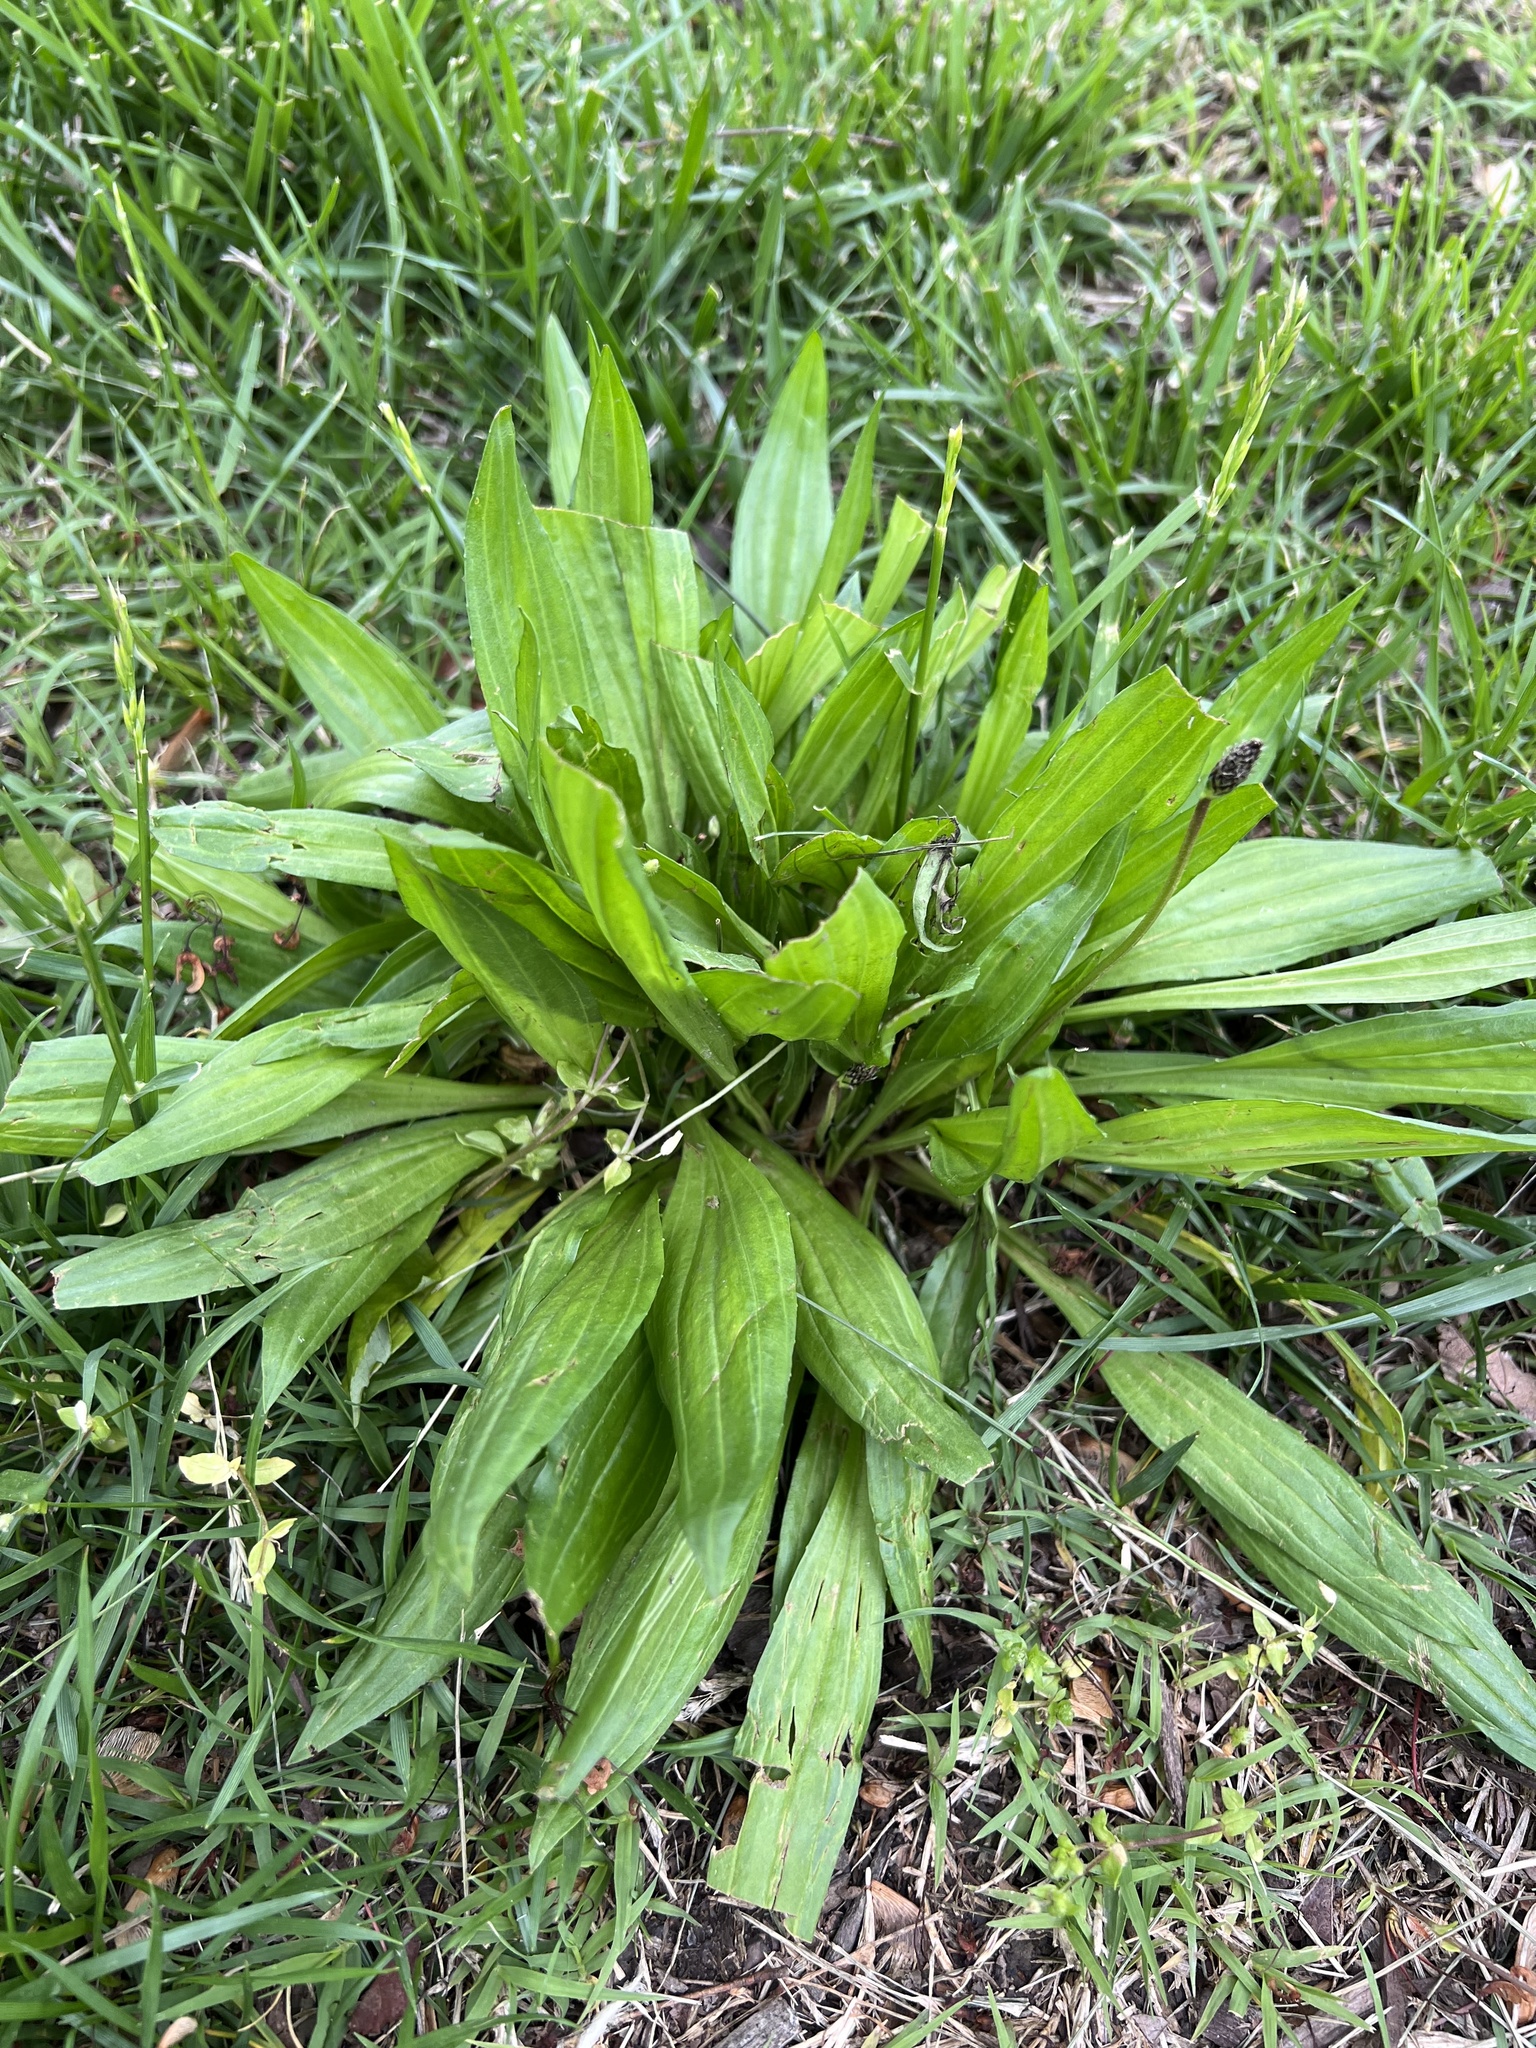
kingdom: Plantae
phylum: Tracheophyta
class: Magnoliopsida
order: Lamiales
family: Plantaginaceae
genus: Plantago
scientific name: Plantago lanceolata
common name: Ribwort plantain
